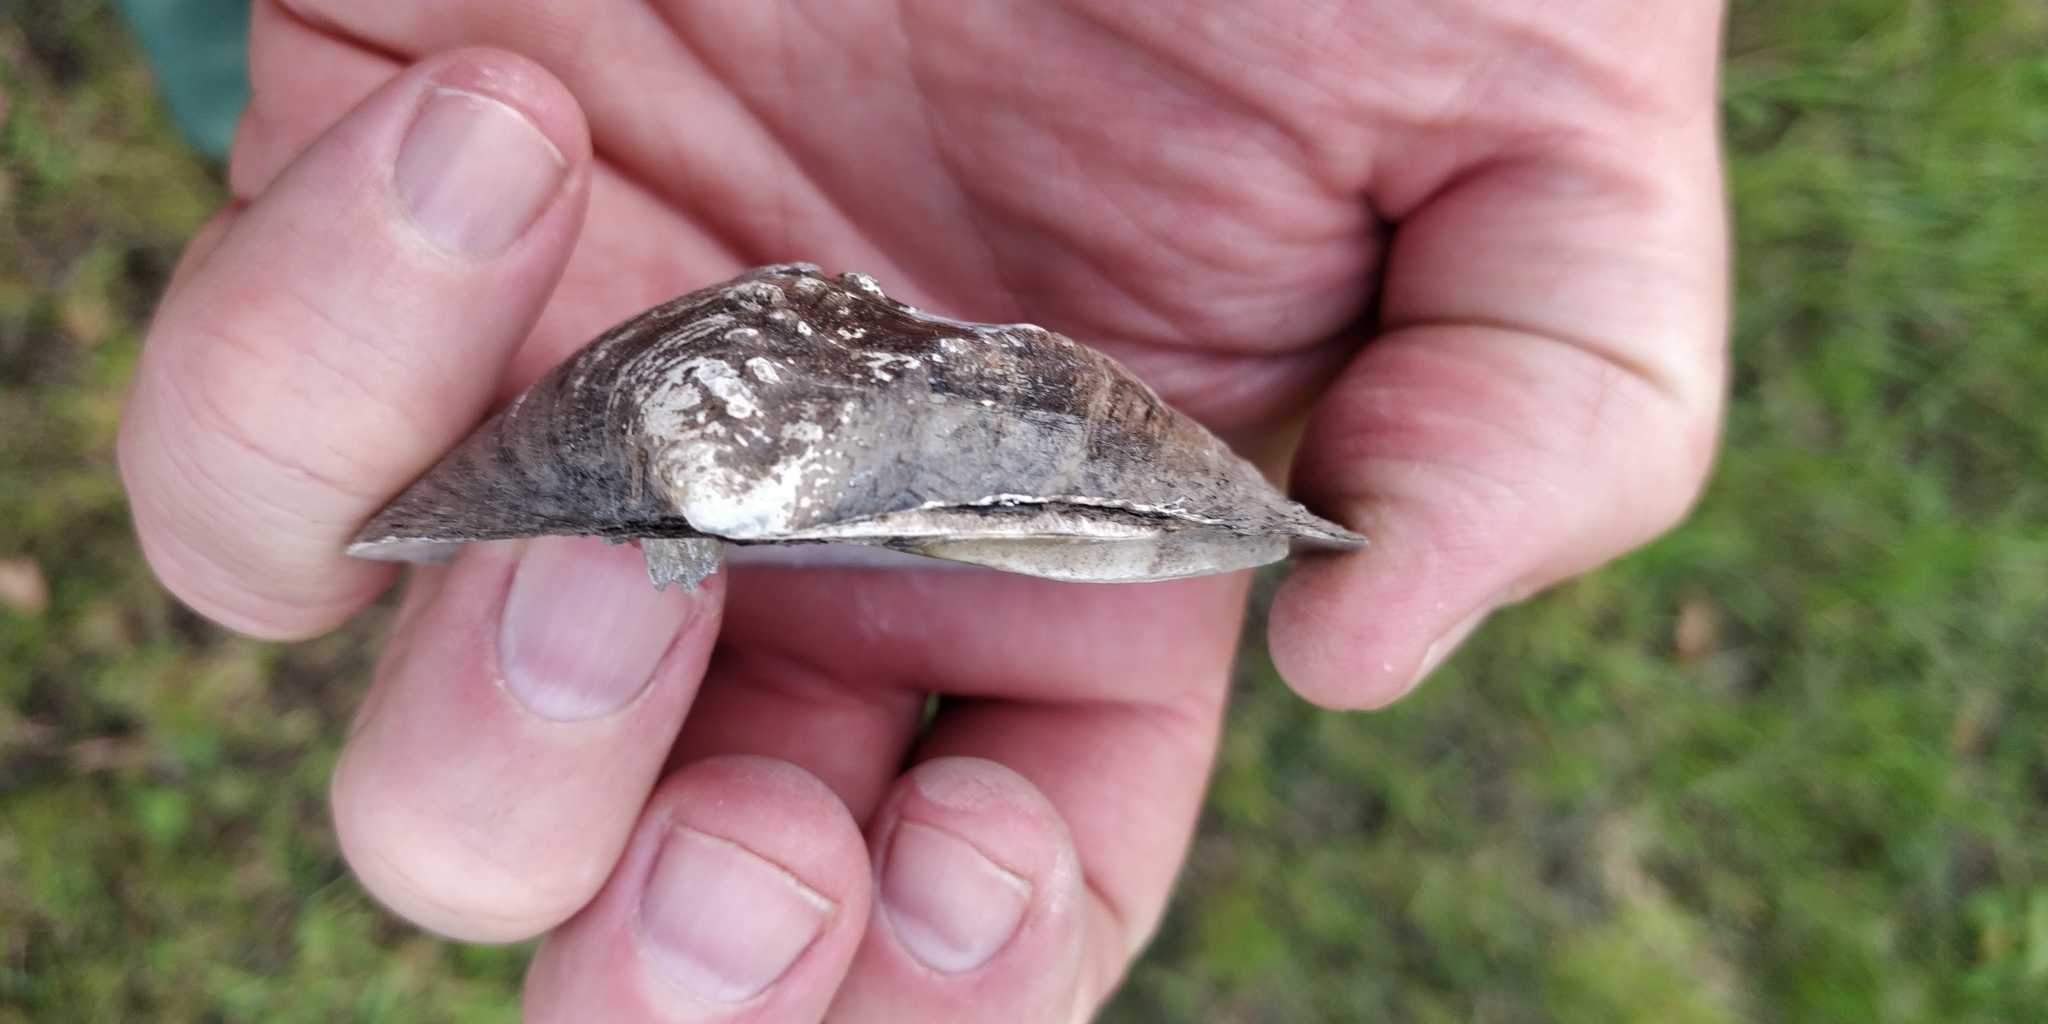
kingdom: Animalia
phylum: Mollusca
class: Bivalvia
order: Unionida
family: Unionidae
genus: Quadrula
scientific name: Quadrula quadrula
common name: Mapleleaf
